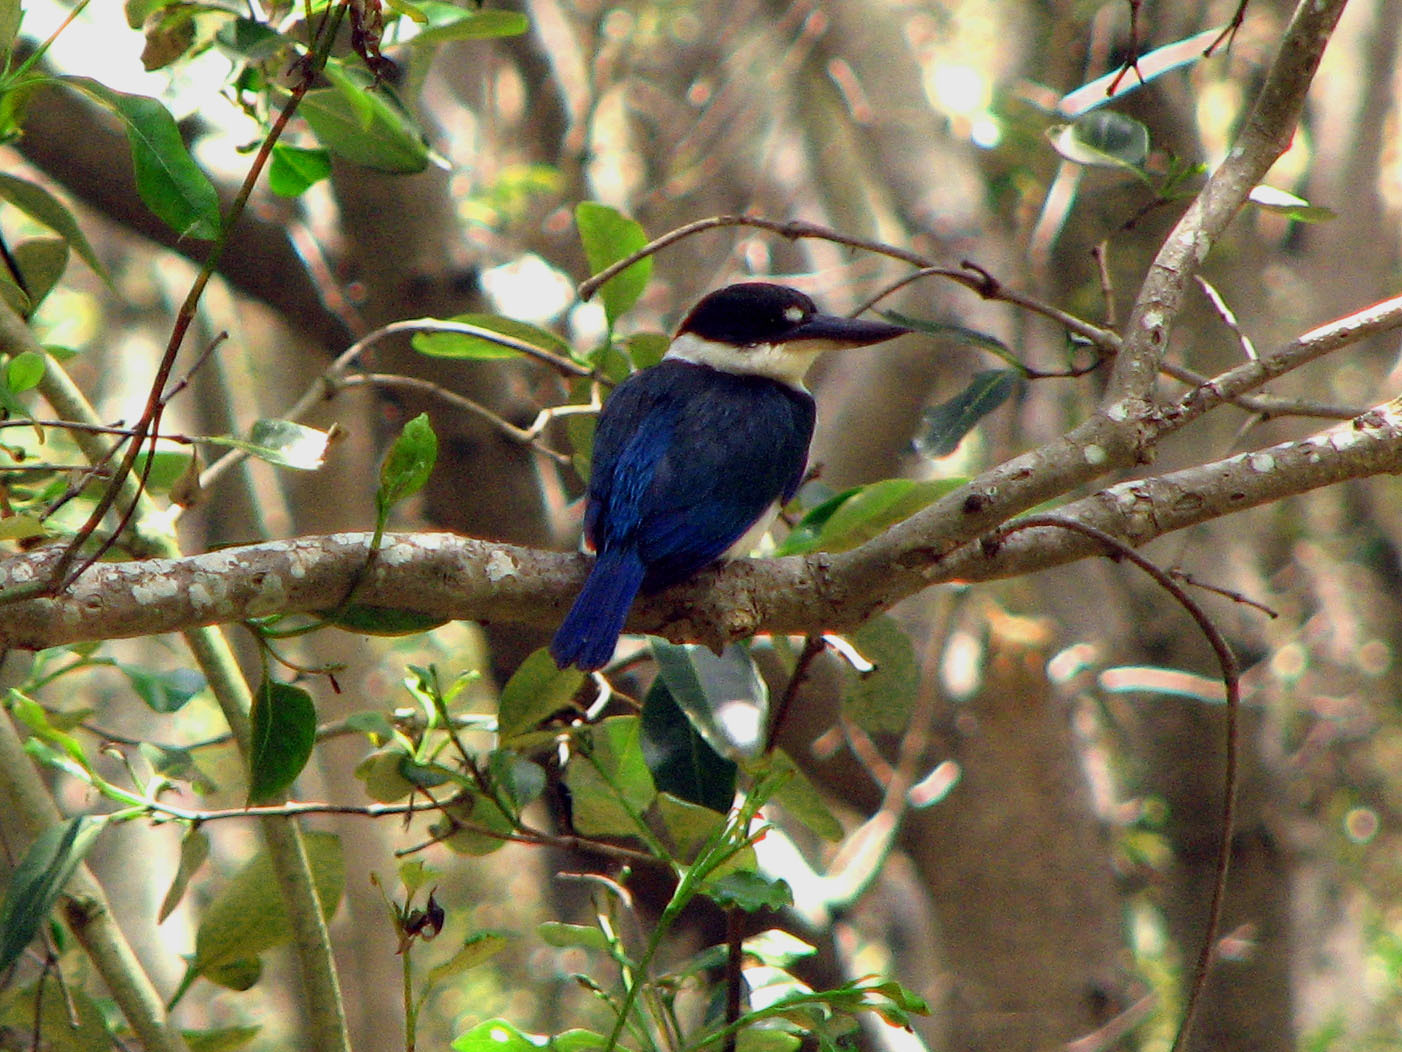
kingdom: Animalia
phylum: Chordata
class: Aves
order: Coraciiformes
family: Alcedinidae
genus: Todiramphus
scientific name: Todiramphus macleayii
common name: Forest kingfisher
